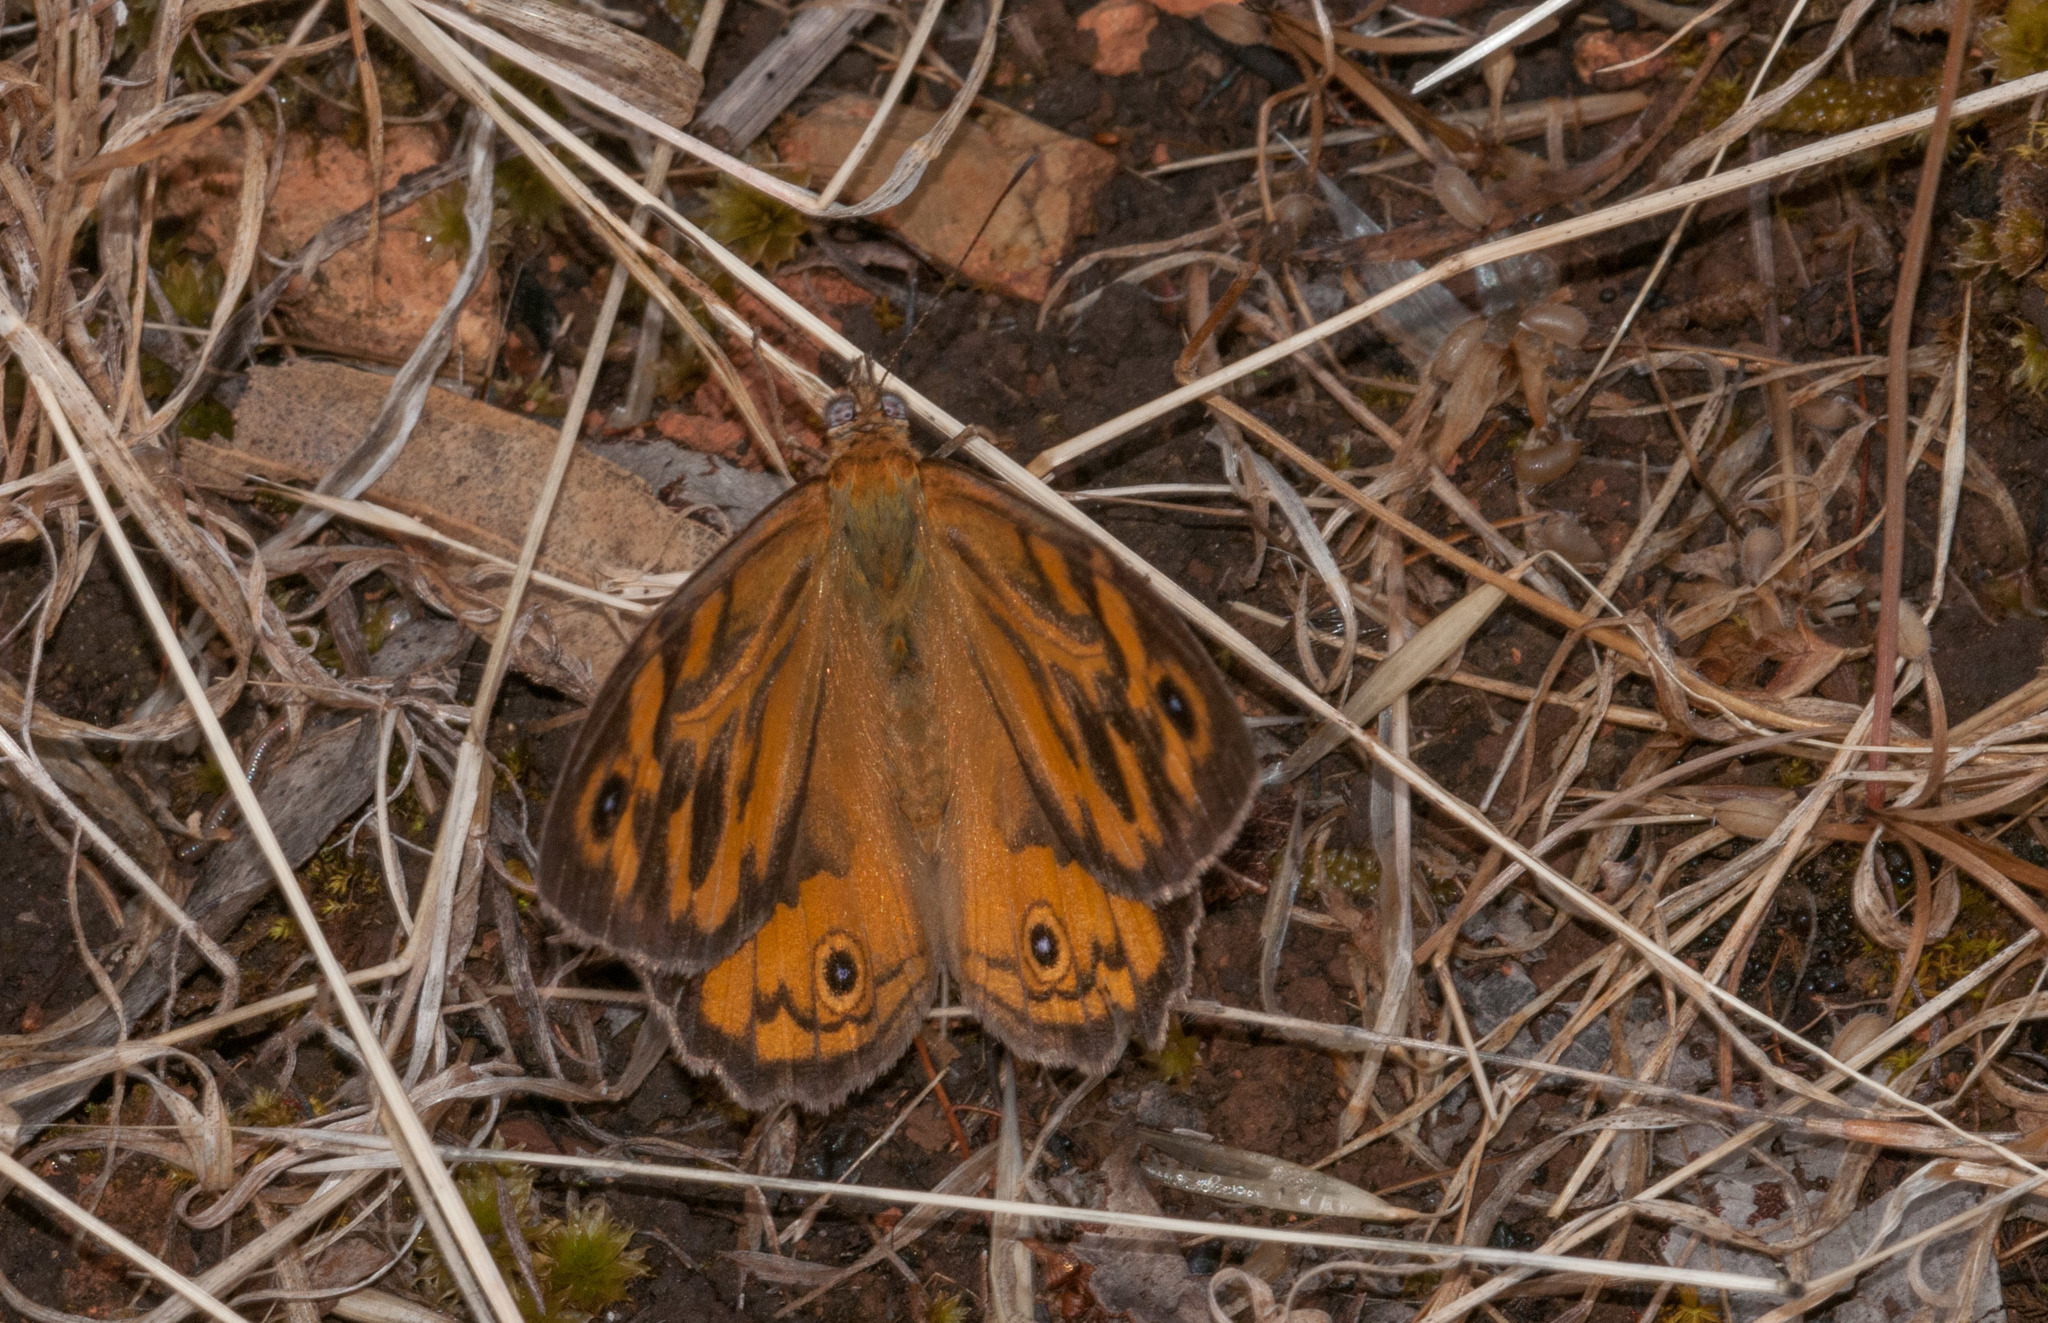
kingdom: Animalia
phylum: Arthropoda
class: Insecta
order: Lepidoptera
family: Nymphalidae
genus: Heteronympha
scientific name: Heteronympha merope
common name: Common brown
